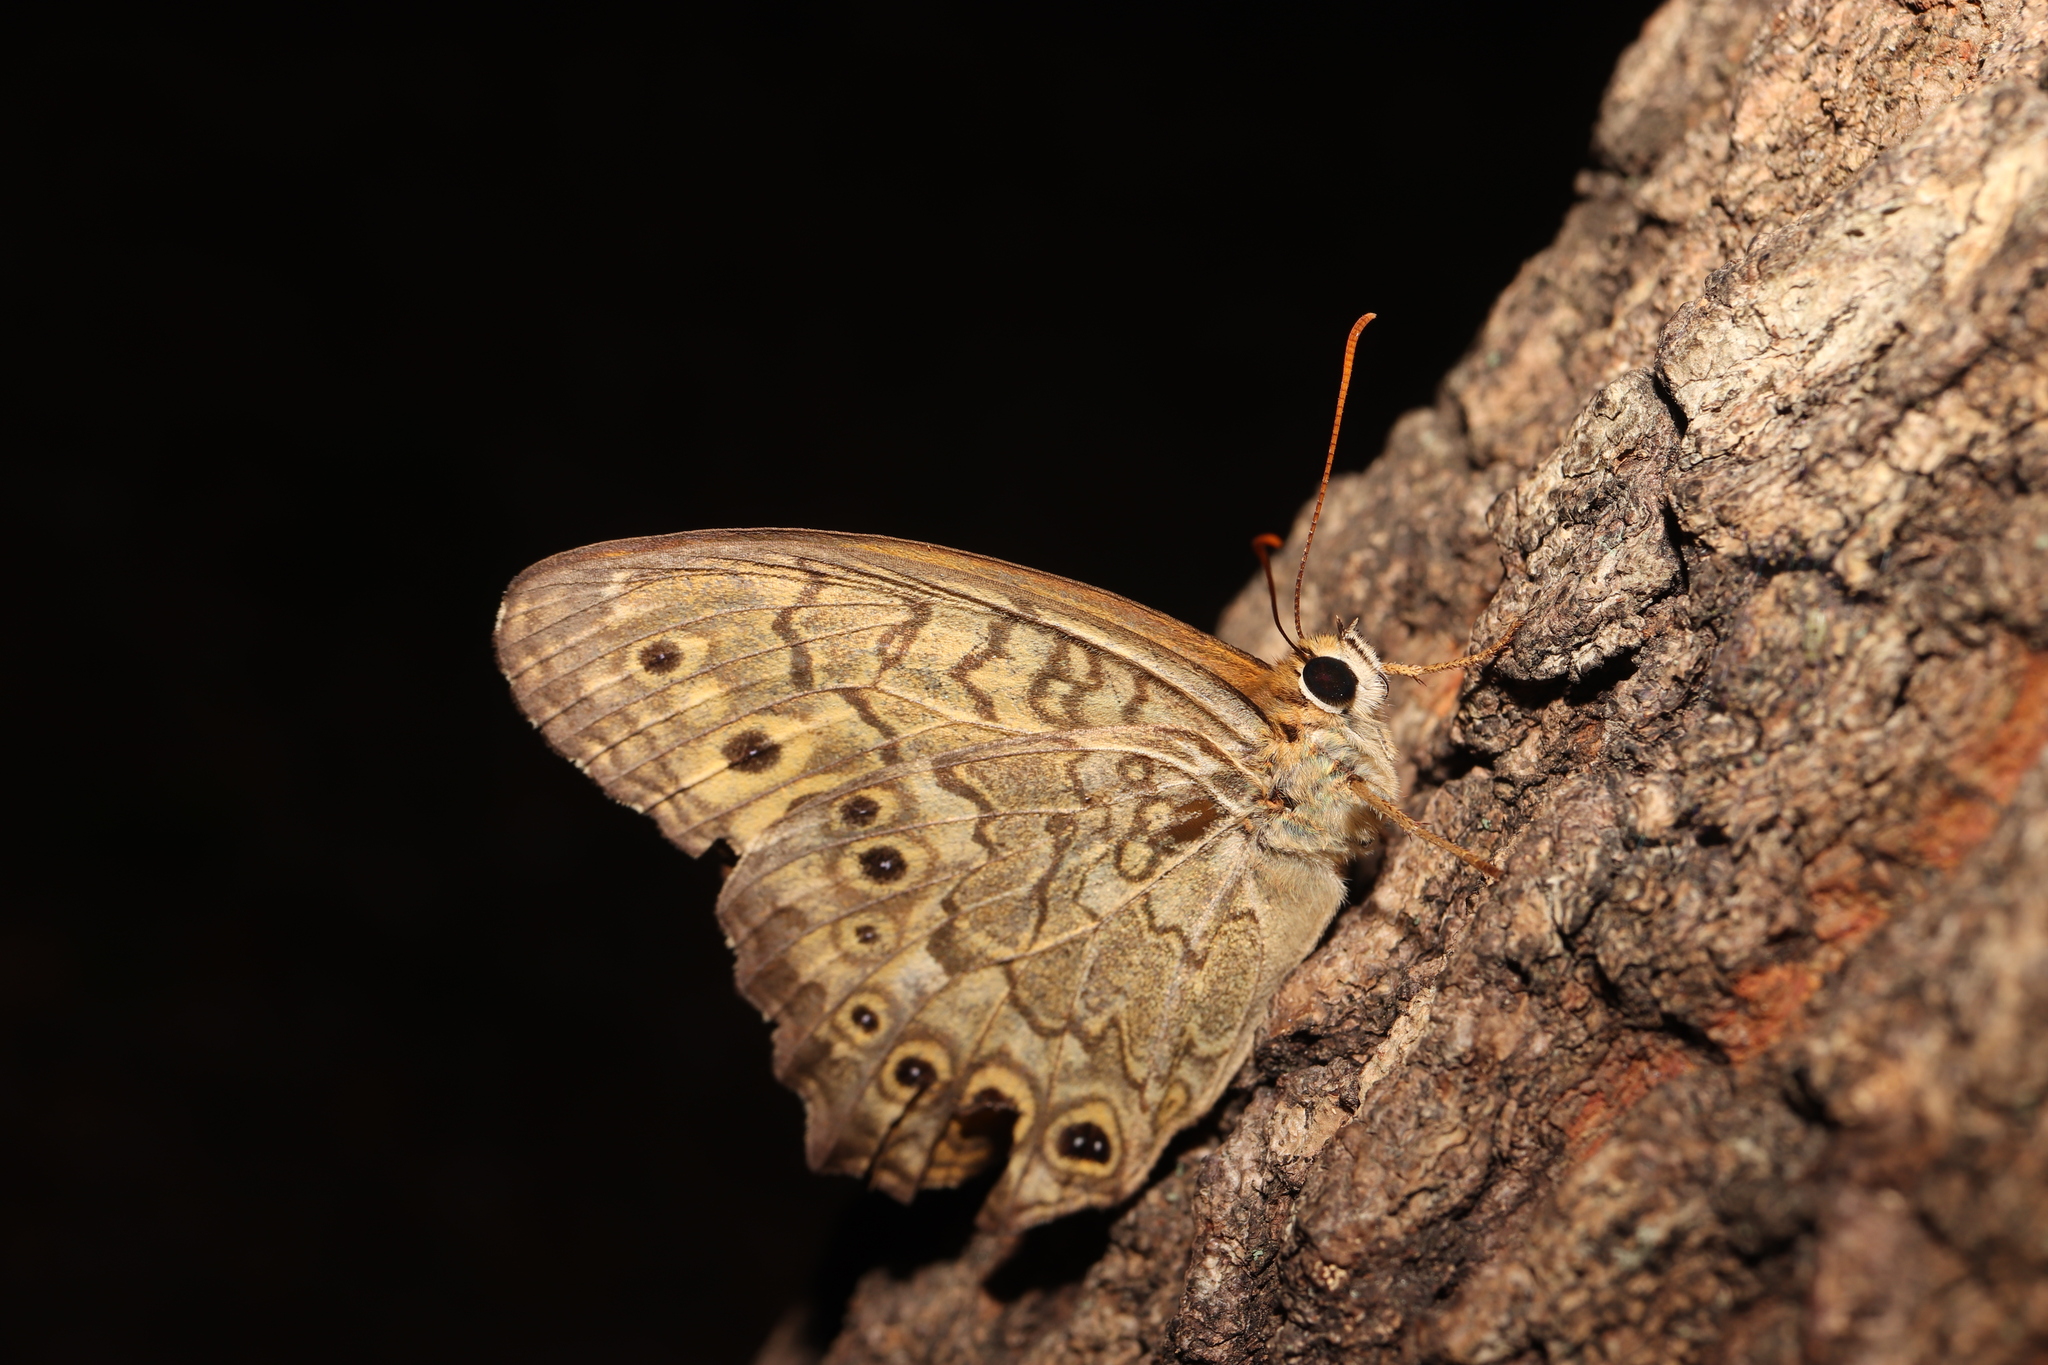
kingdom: Animalia
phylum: Arthropoda
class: Insecta
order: Lepidoptera
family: Nymphalidae
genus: Neope
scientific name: Neope goschkevitschii
